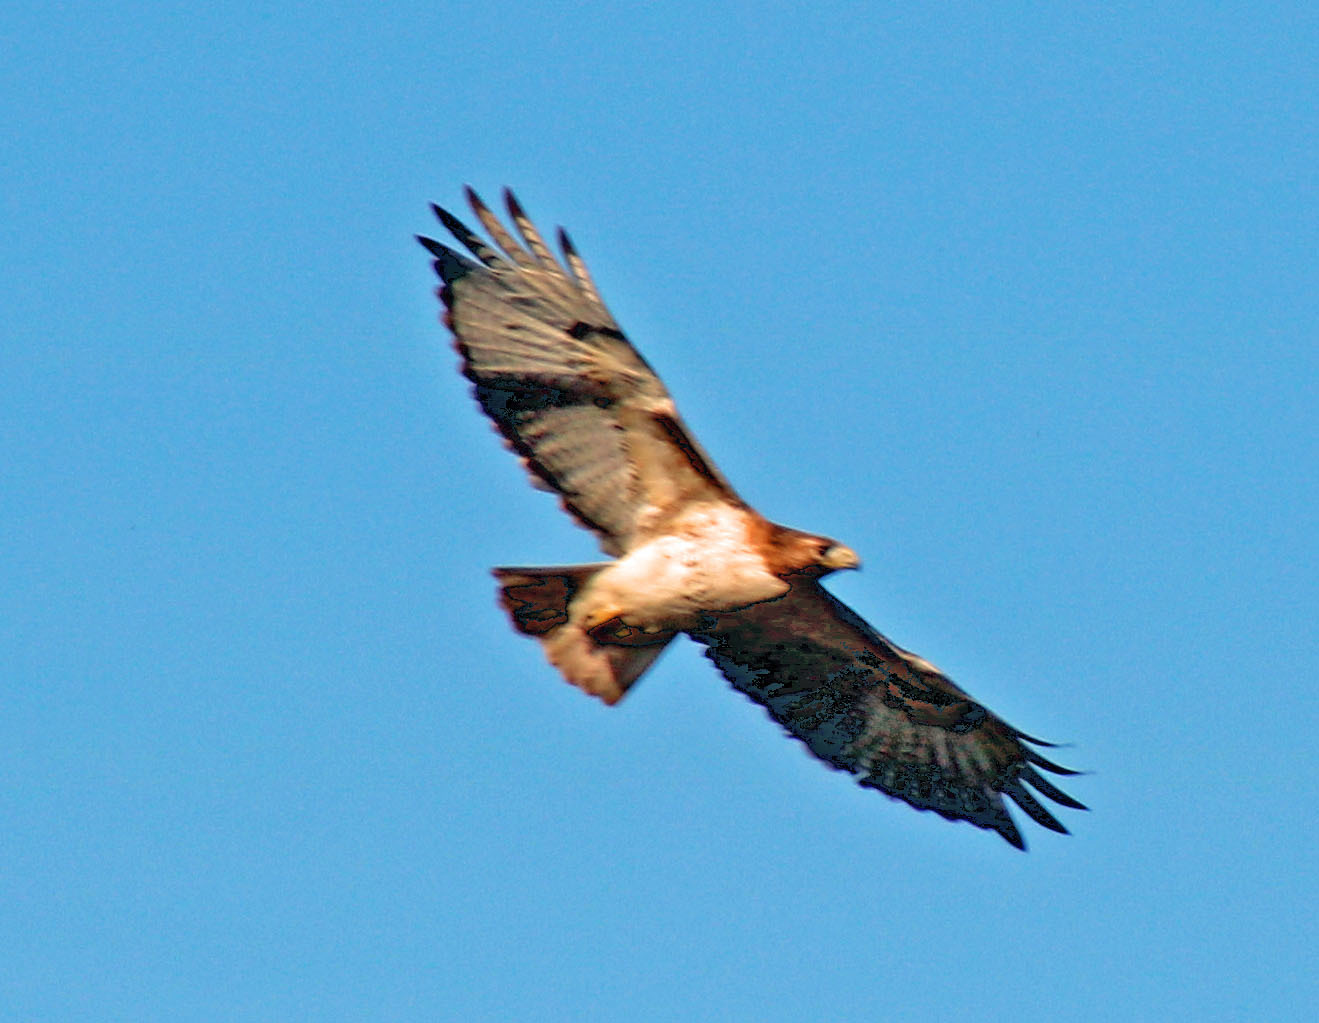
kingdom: Animalia
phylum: Chordata
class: Aves
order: Accipitriformes
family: Accipitridae
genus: Buteo
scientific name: Buteo jamaicensis
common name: Red-tailed hawk
